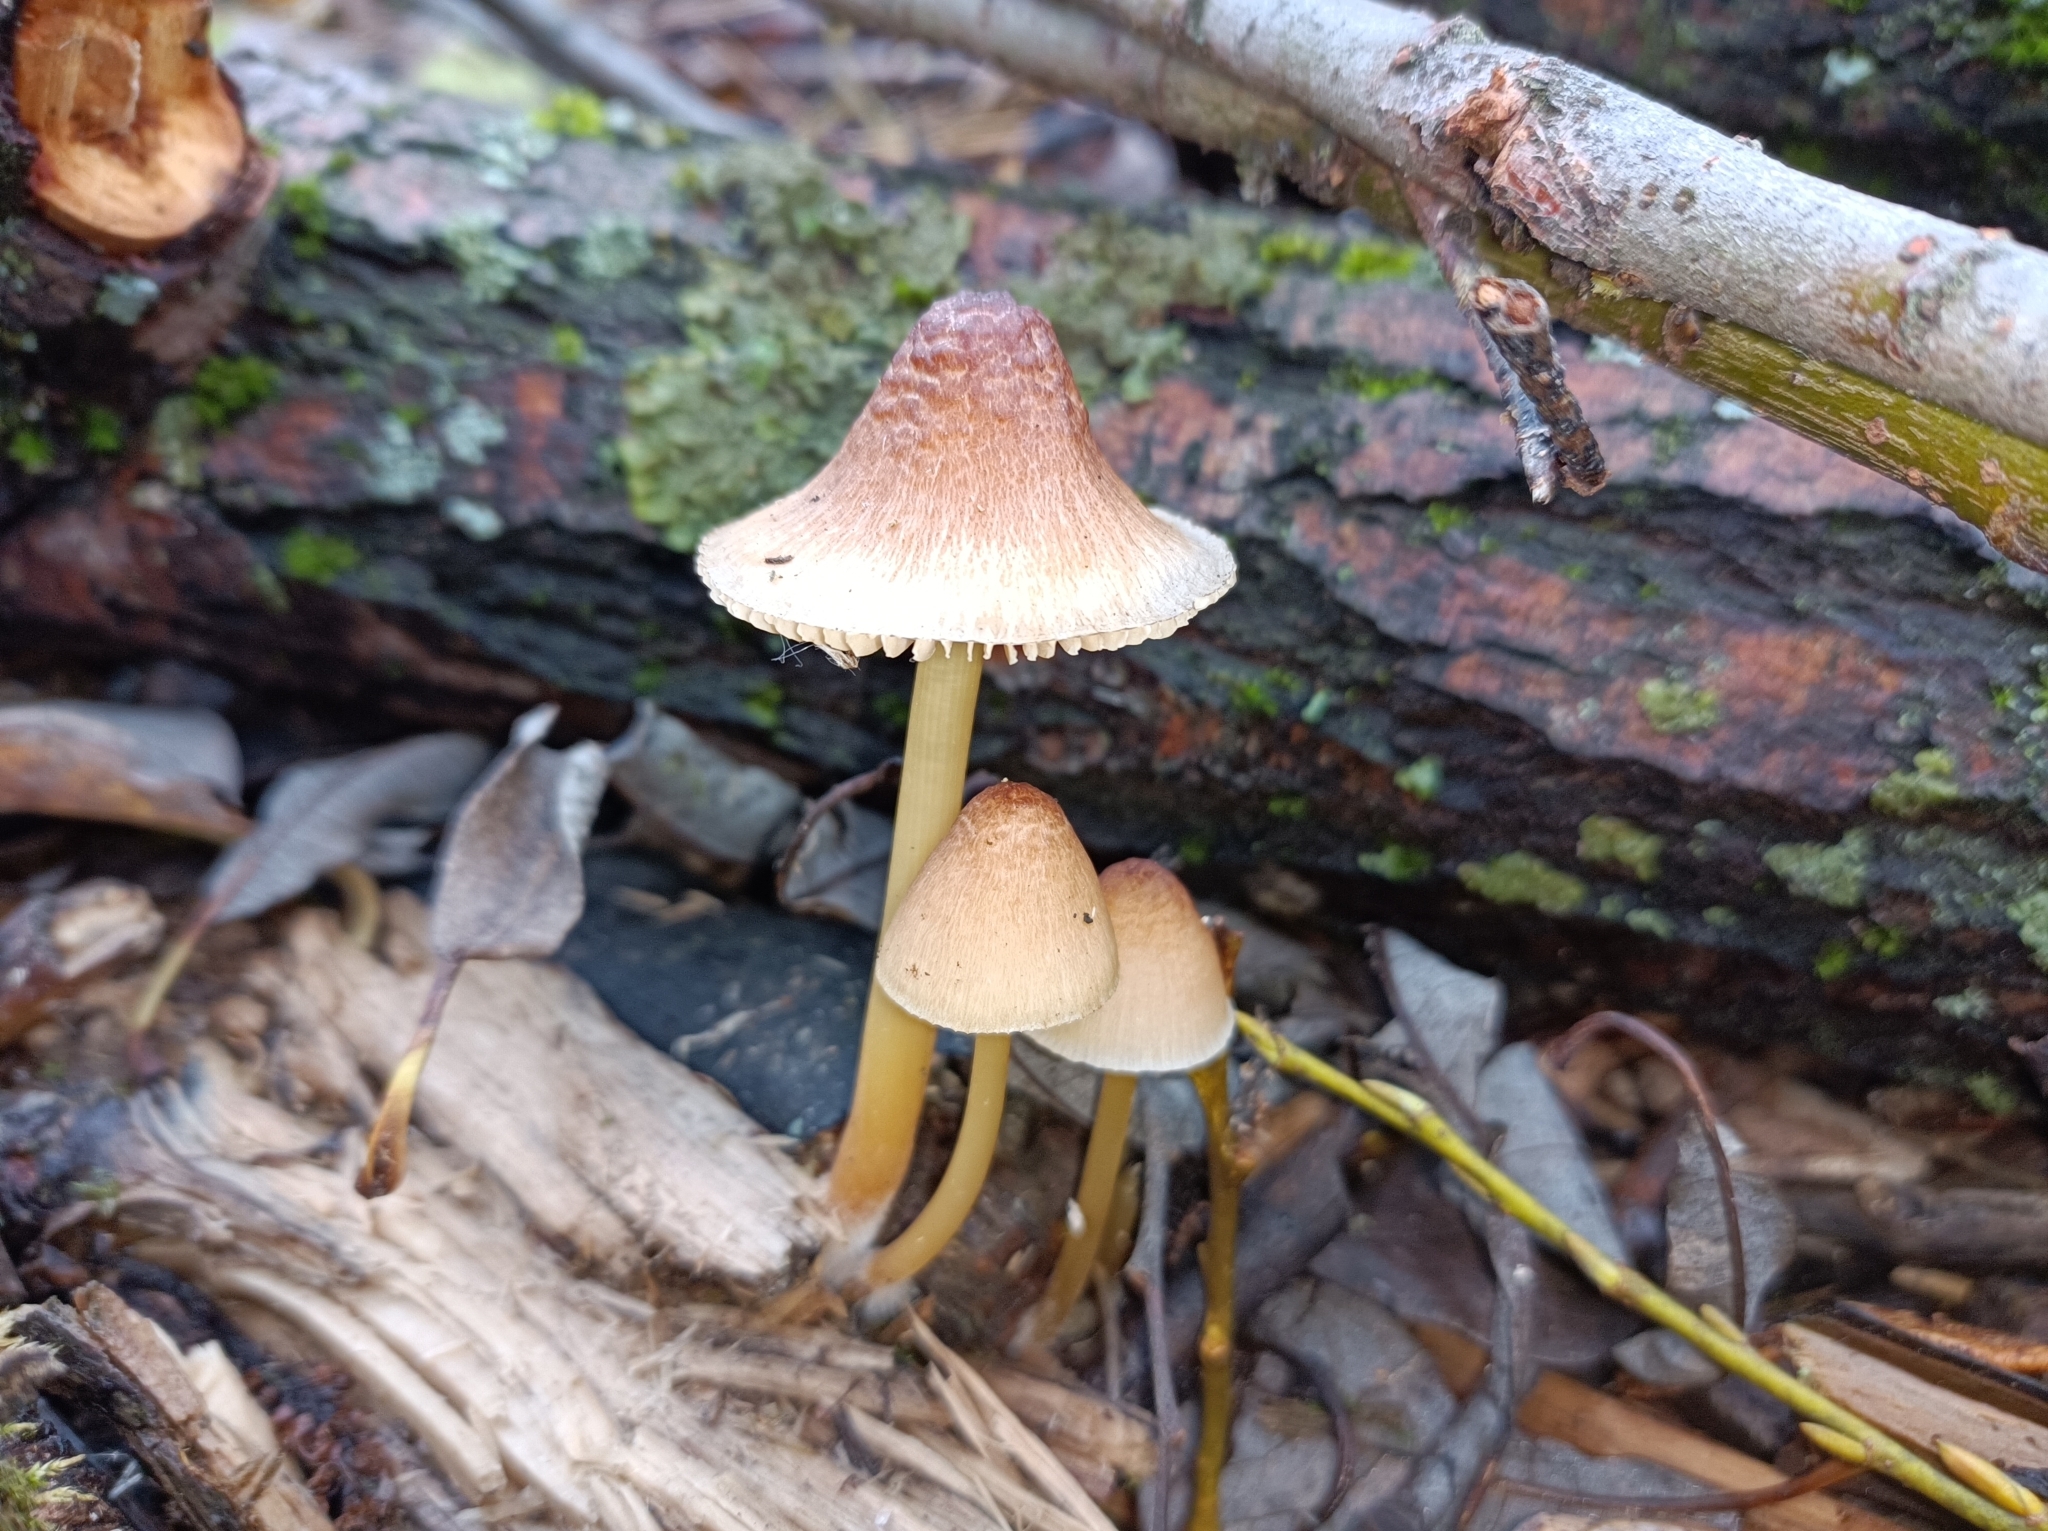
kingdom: Fungi
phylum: Basidiomycota
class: Agaricomycetes
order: Agaricales
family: Mycenaceae
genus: Mycena
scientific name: Mycena renati
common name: Beautiful bonnet
